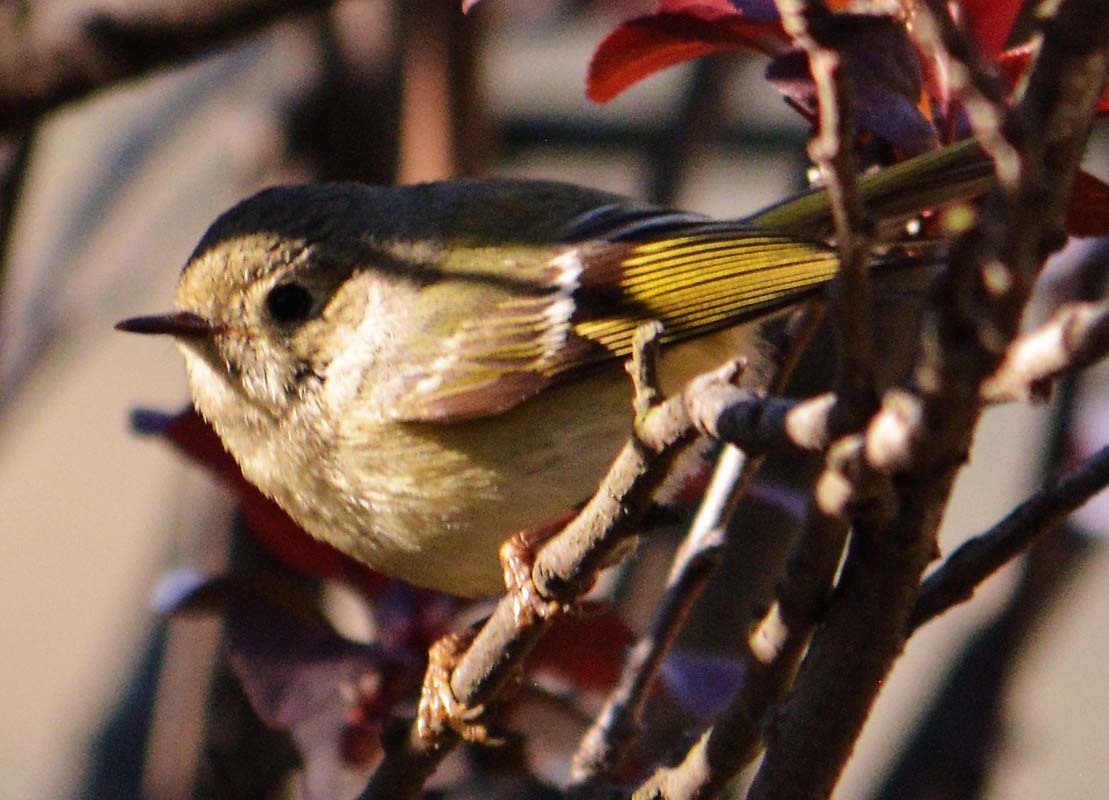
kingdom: Animalia
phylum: Chordata
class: Aves
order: Passeriformes
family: Regulidae
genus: Regulus
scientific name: Regulus calendula
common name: Ruby-crowned kinglet
